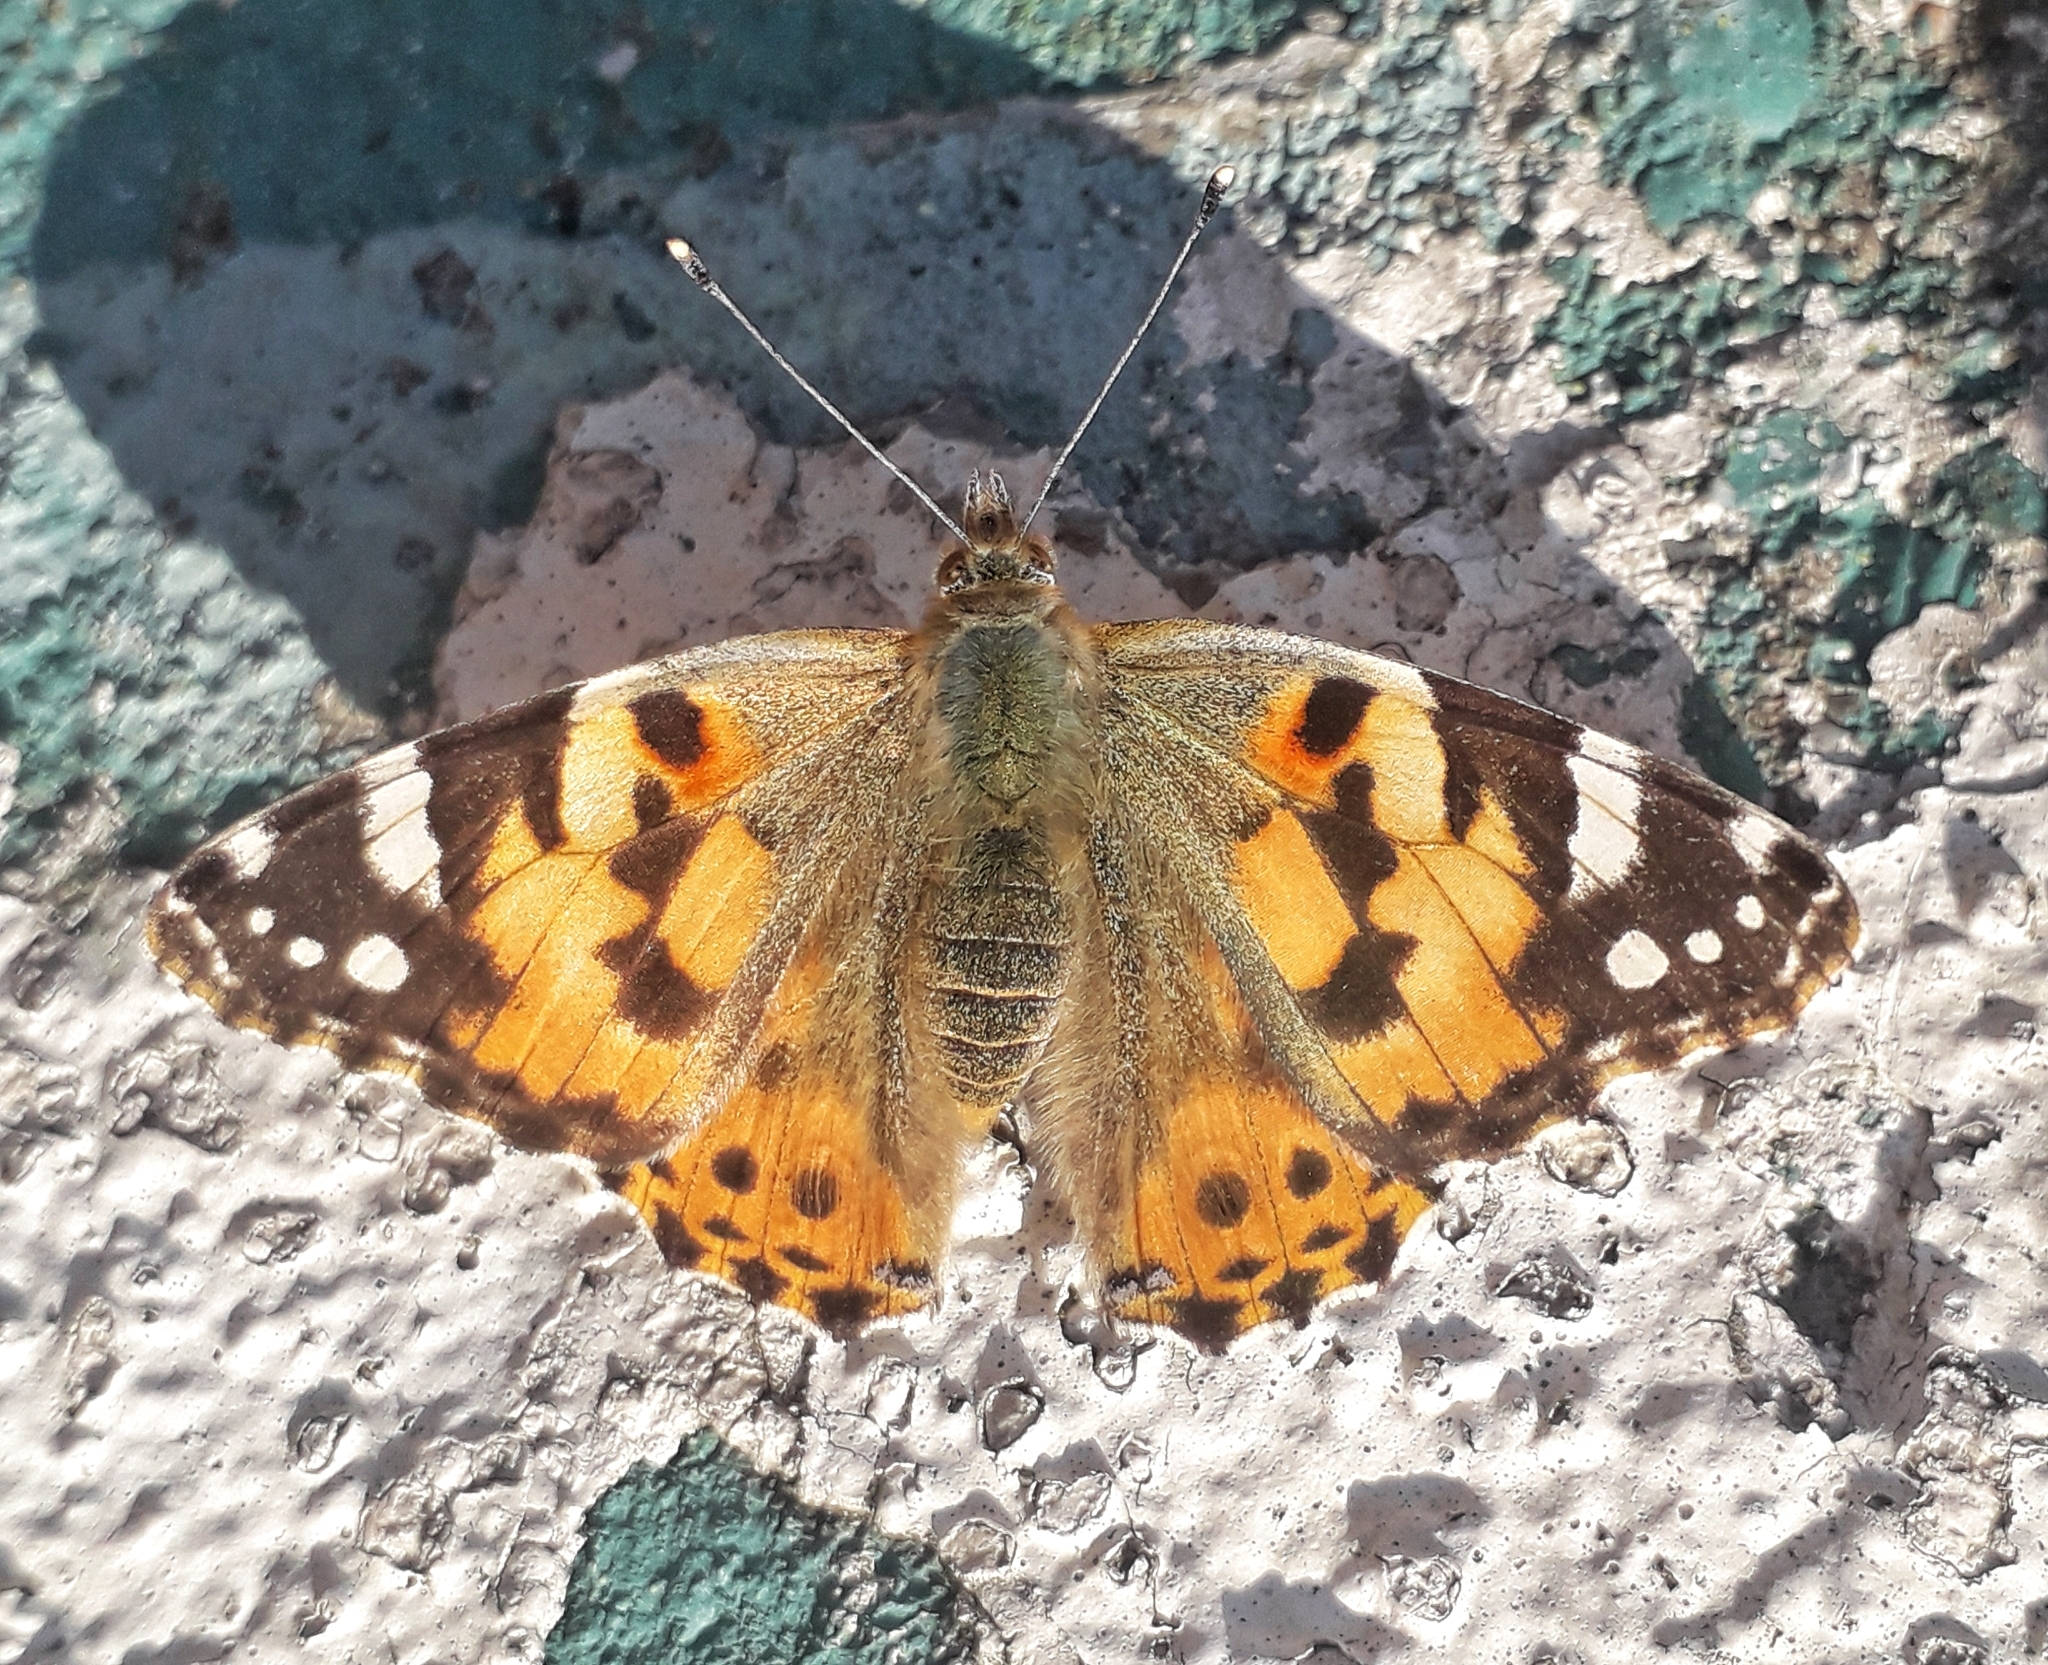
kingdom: Animalia
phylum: Arthropoda
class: Insecta
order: Lepidoptera
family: Nymphalidae
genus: Vanessa
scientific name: Vanessa cardui
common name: Painted lady
